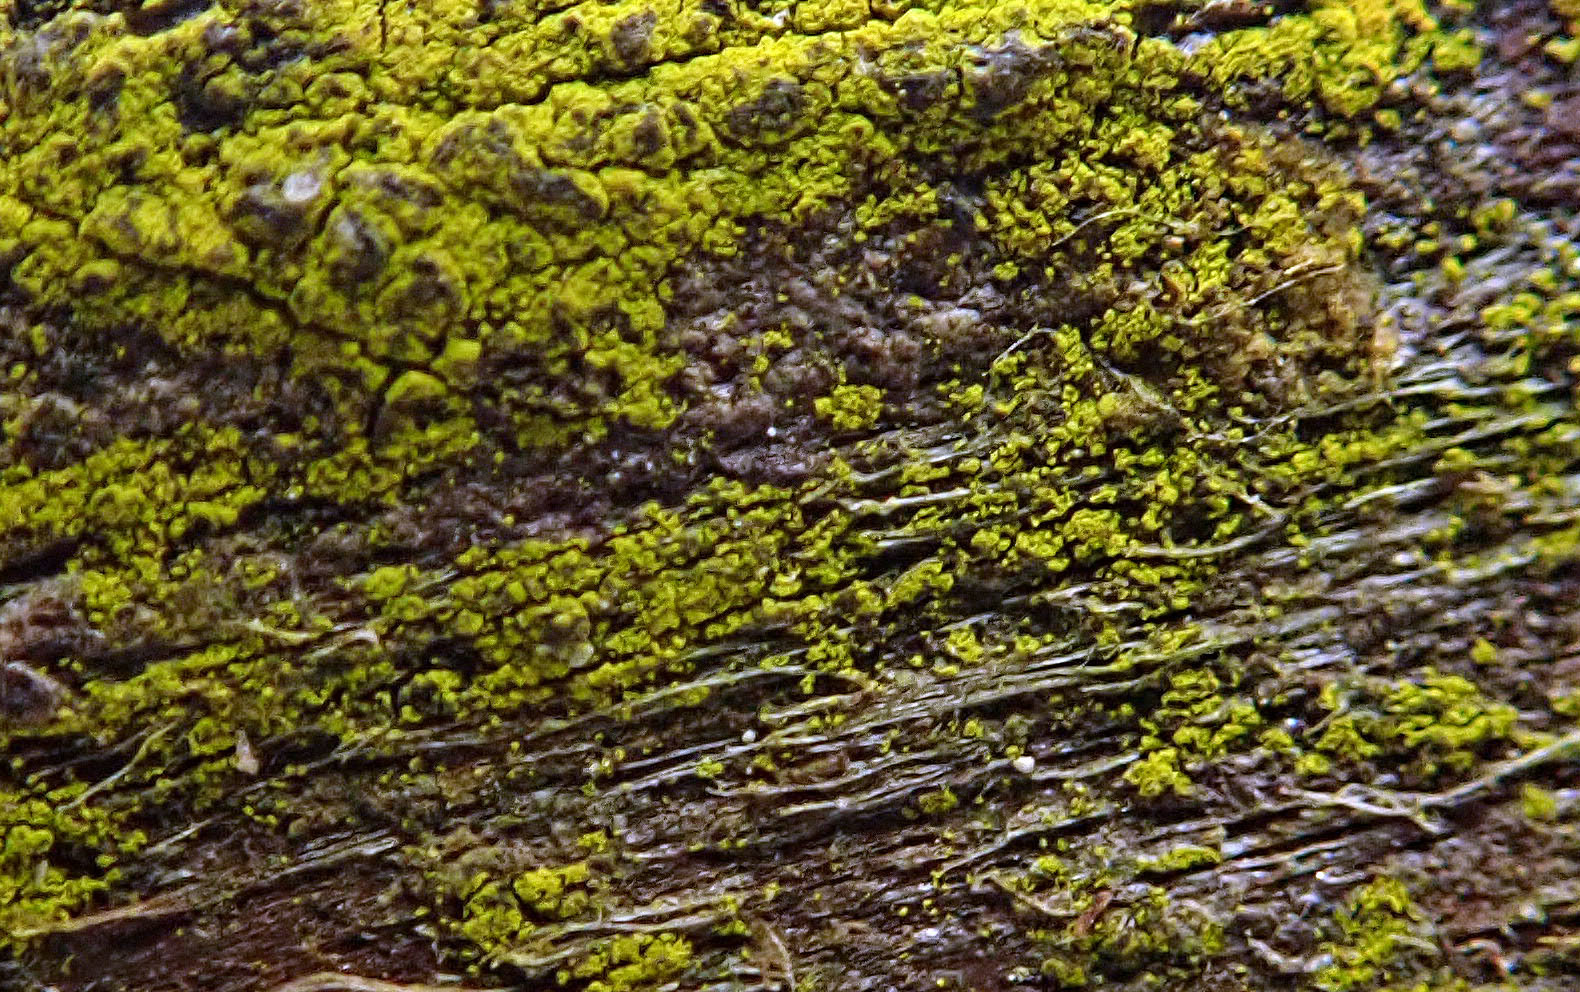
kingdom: Fungi
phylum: Ascomycota
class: Arthoniomycetes
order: Arthoniales
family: Chrysotrichaceae
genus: Chrysothrix
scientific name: Chrysothrix xanthina
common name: Common gold-dust
